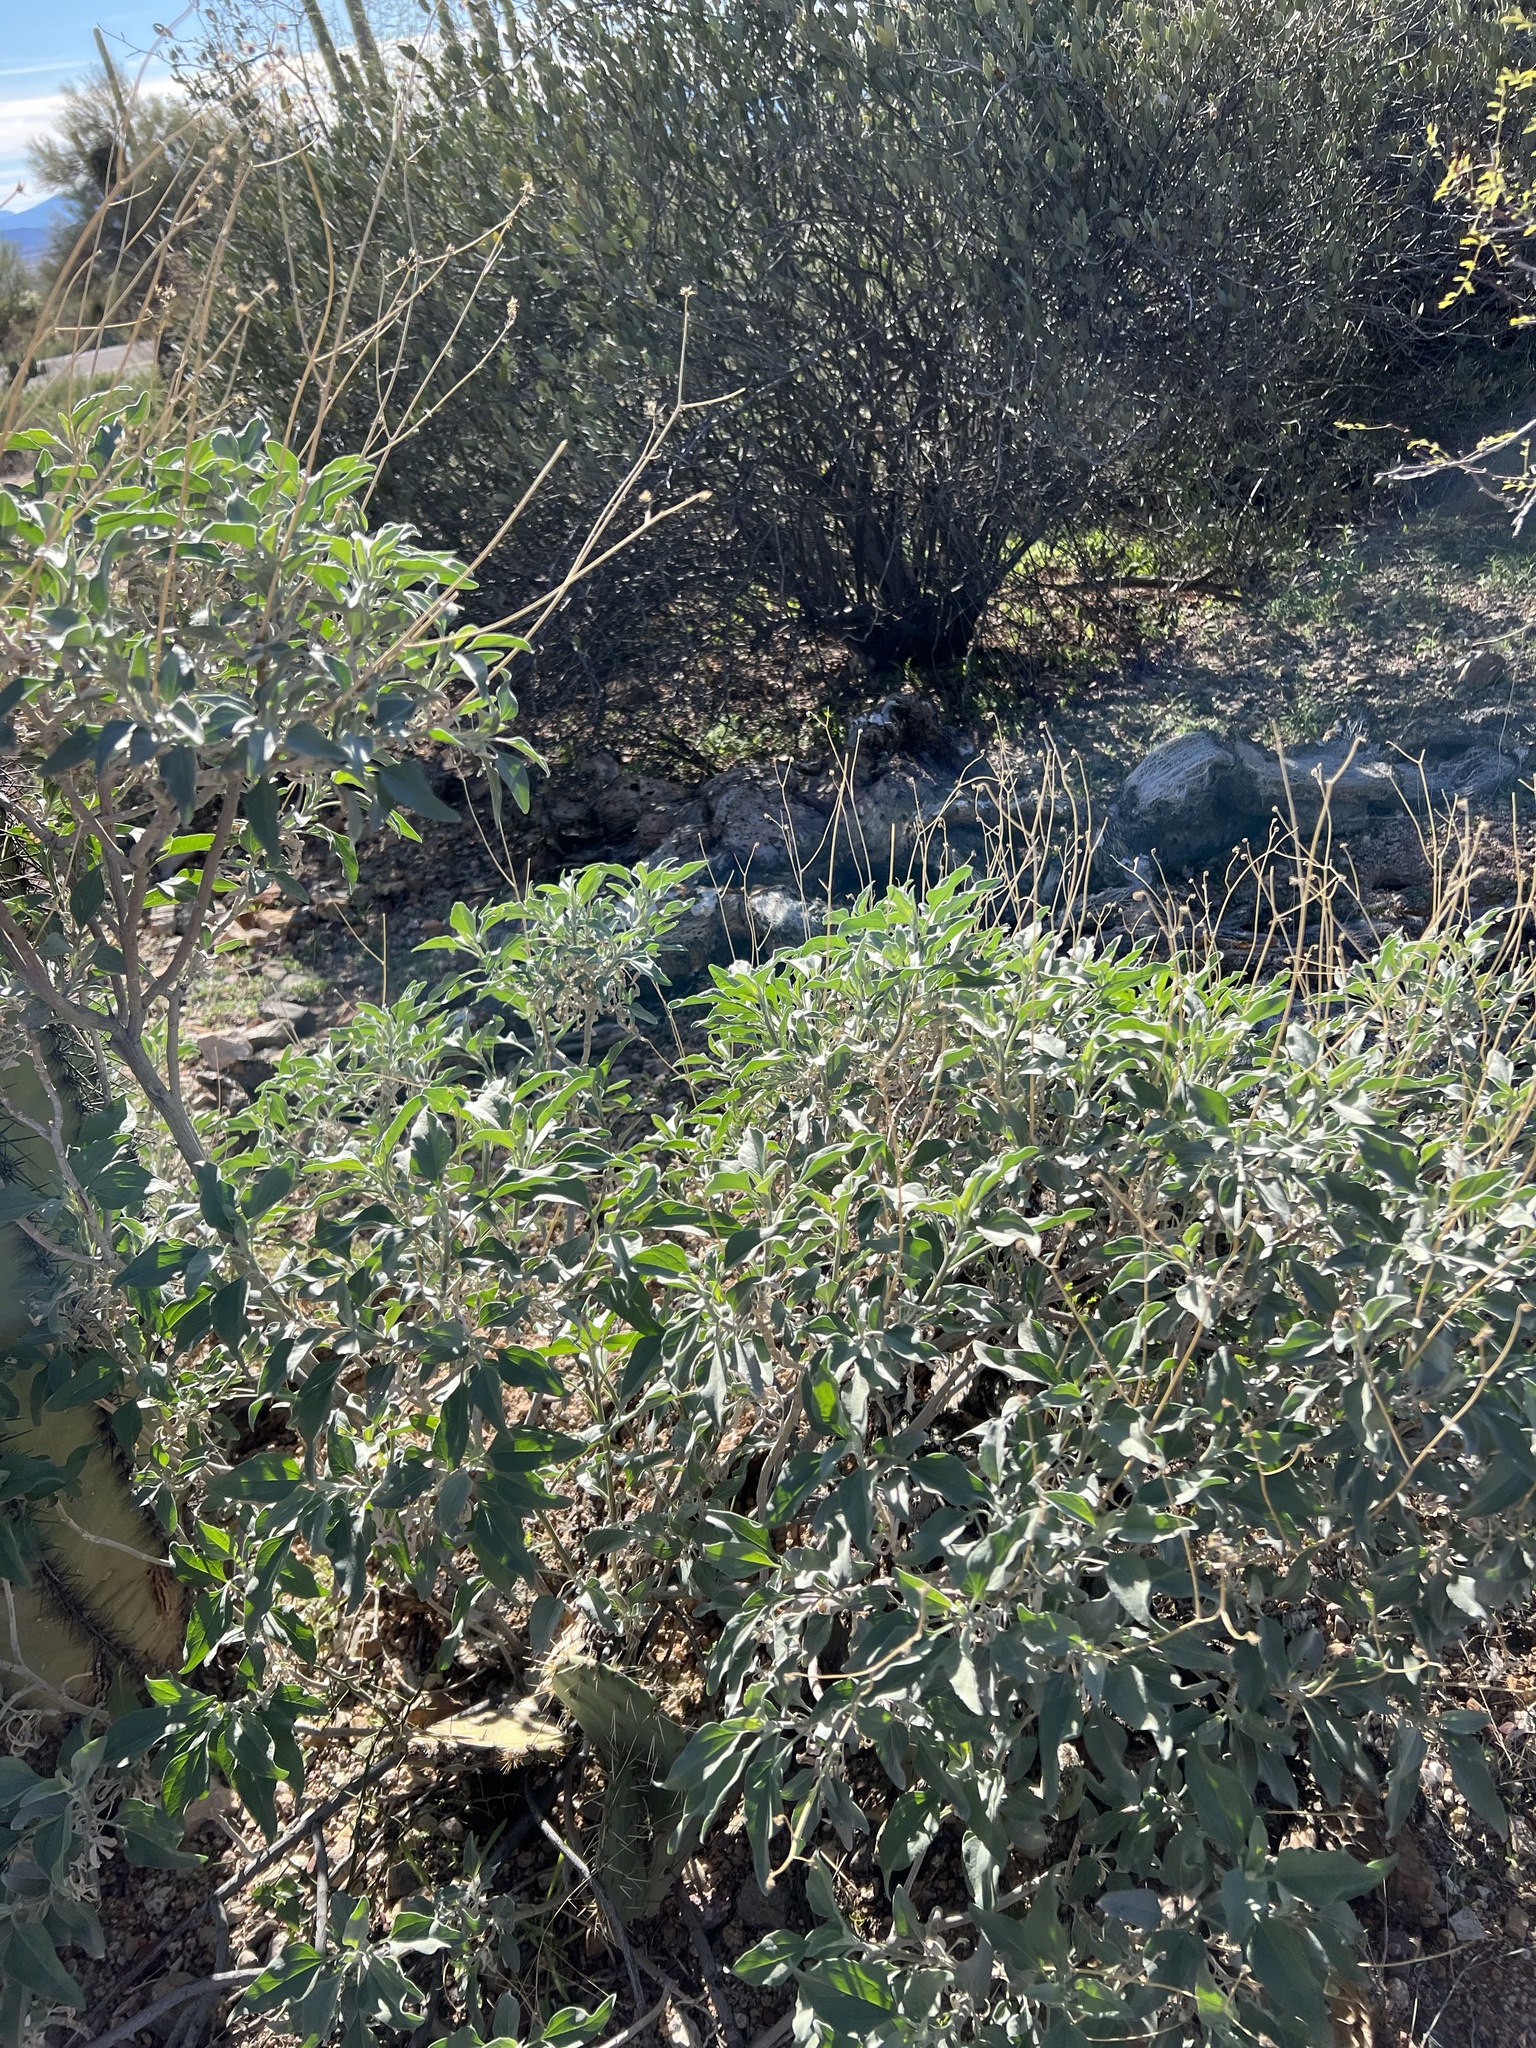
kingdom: Plantae
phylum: Tracheophyta
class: Magnoliopsida
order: Asterales
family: Asteraceae
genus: Encelia
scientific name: Encelia farinosa
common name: Brittlebush
